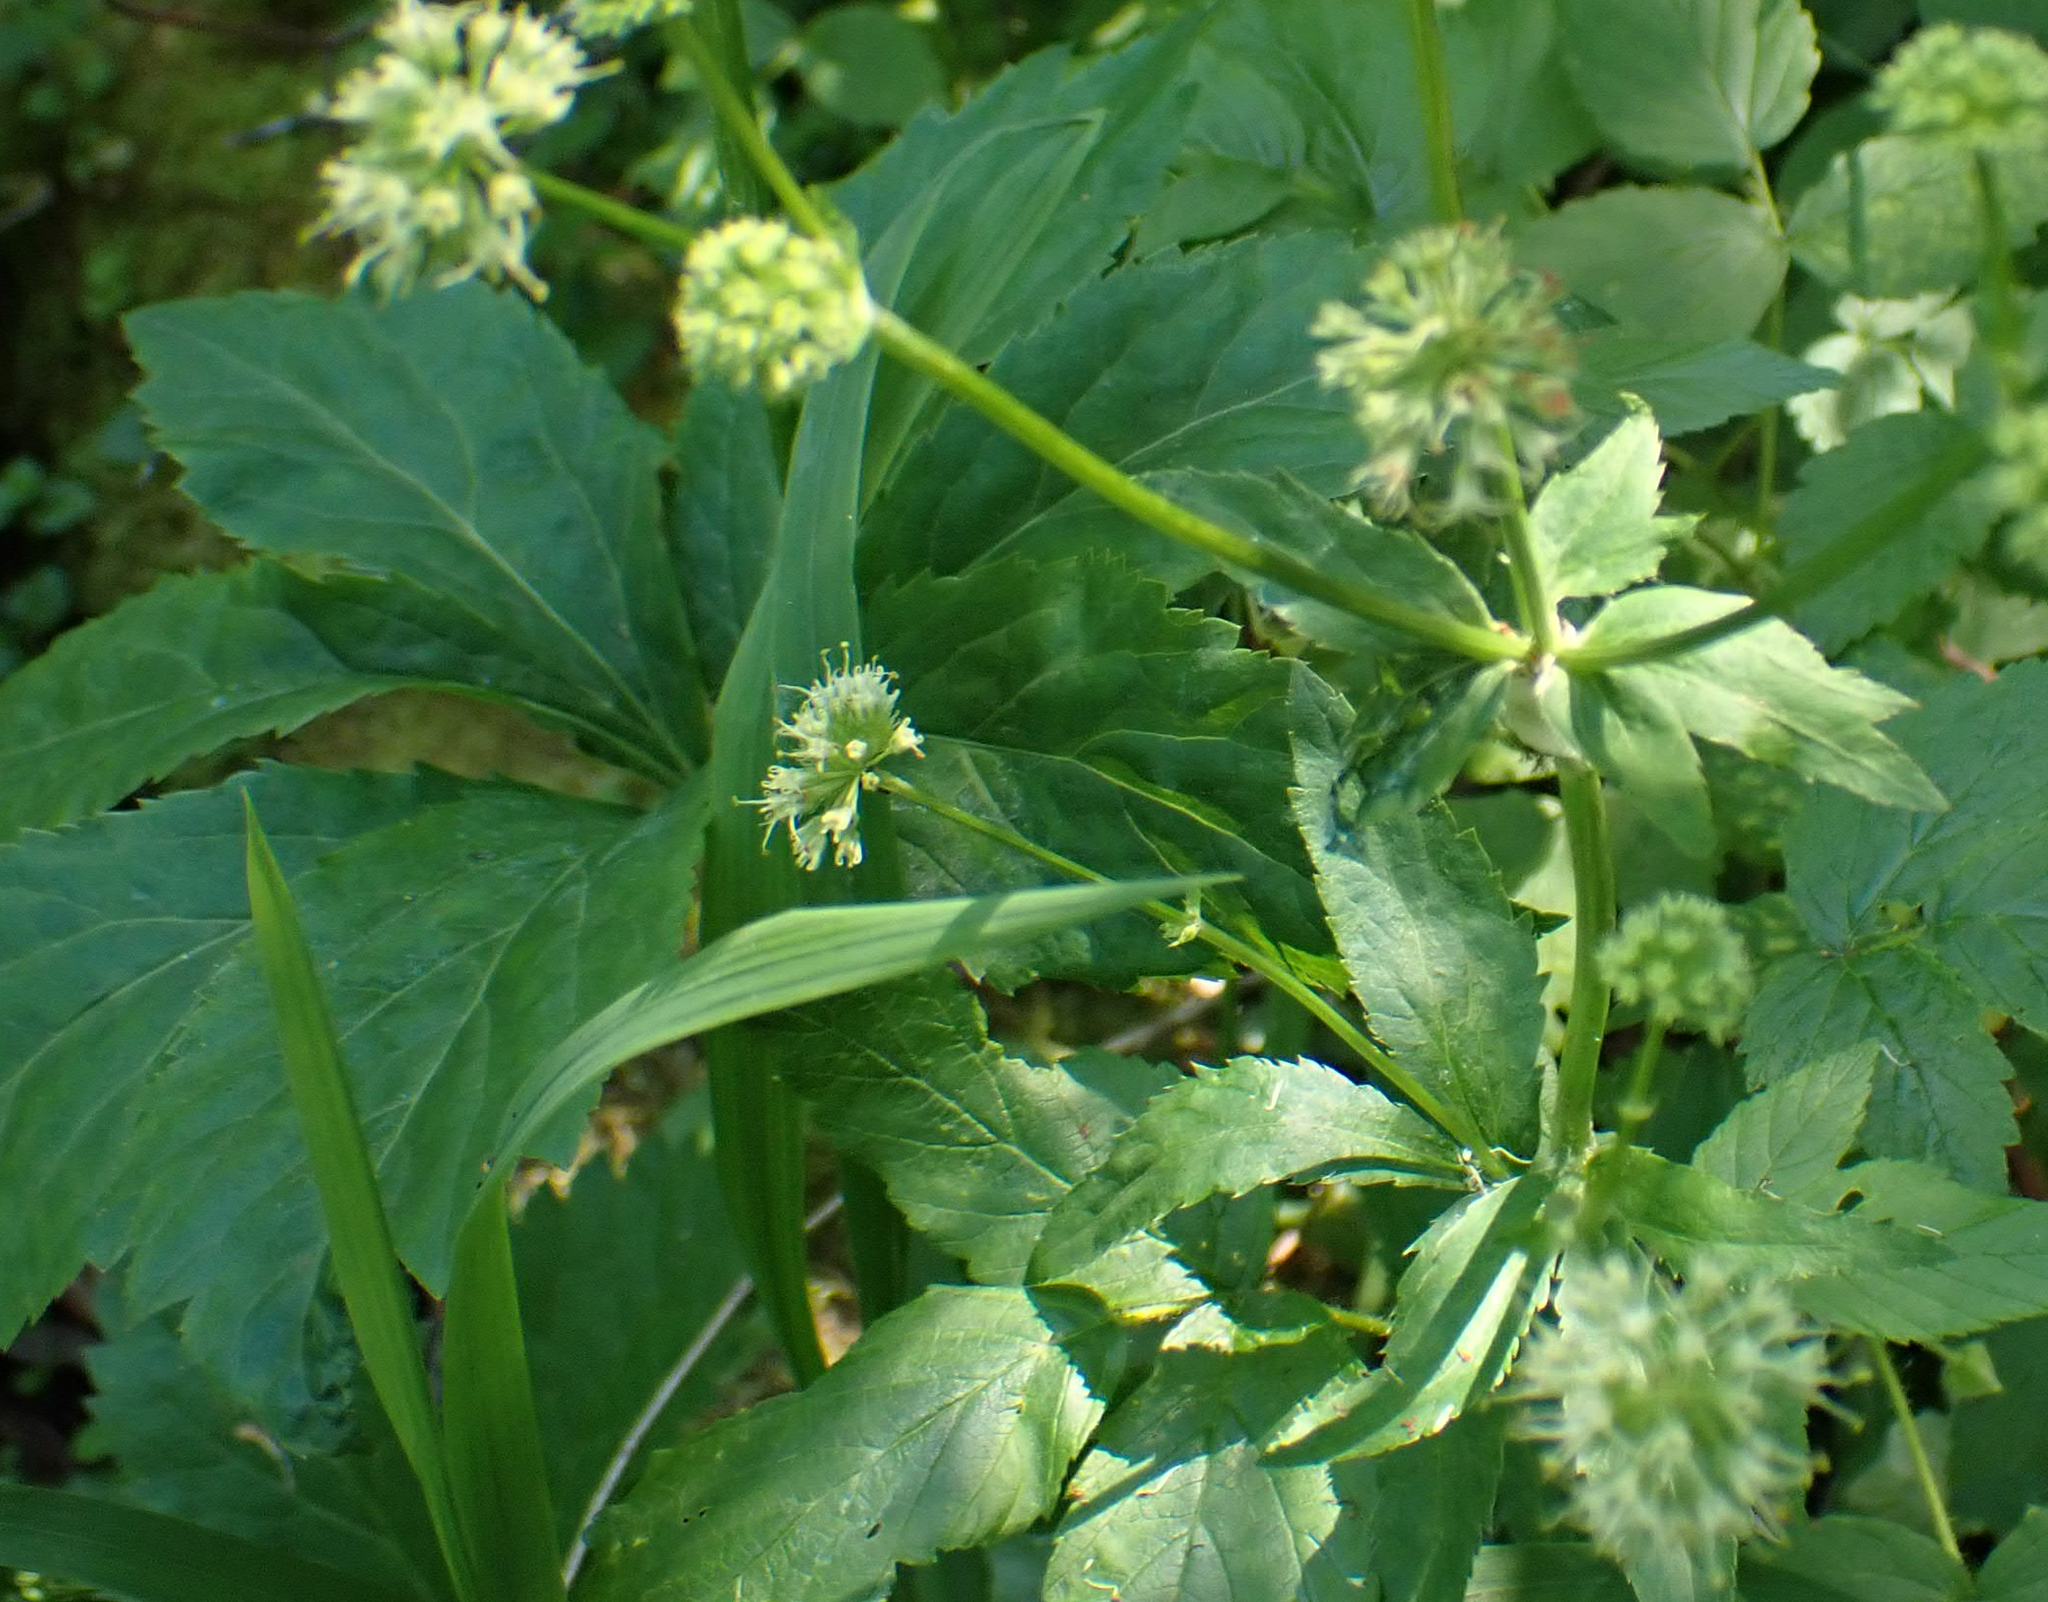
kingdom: Plantae
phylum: Tracheophyta
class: Magnoliopsida
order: Apiales
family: Apiaceae
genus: Sanicula
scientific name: Sanicula marilandica
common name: Black snakeroot
